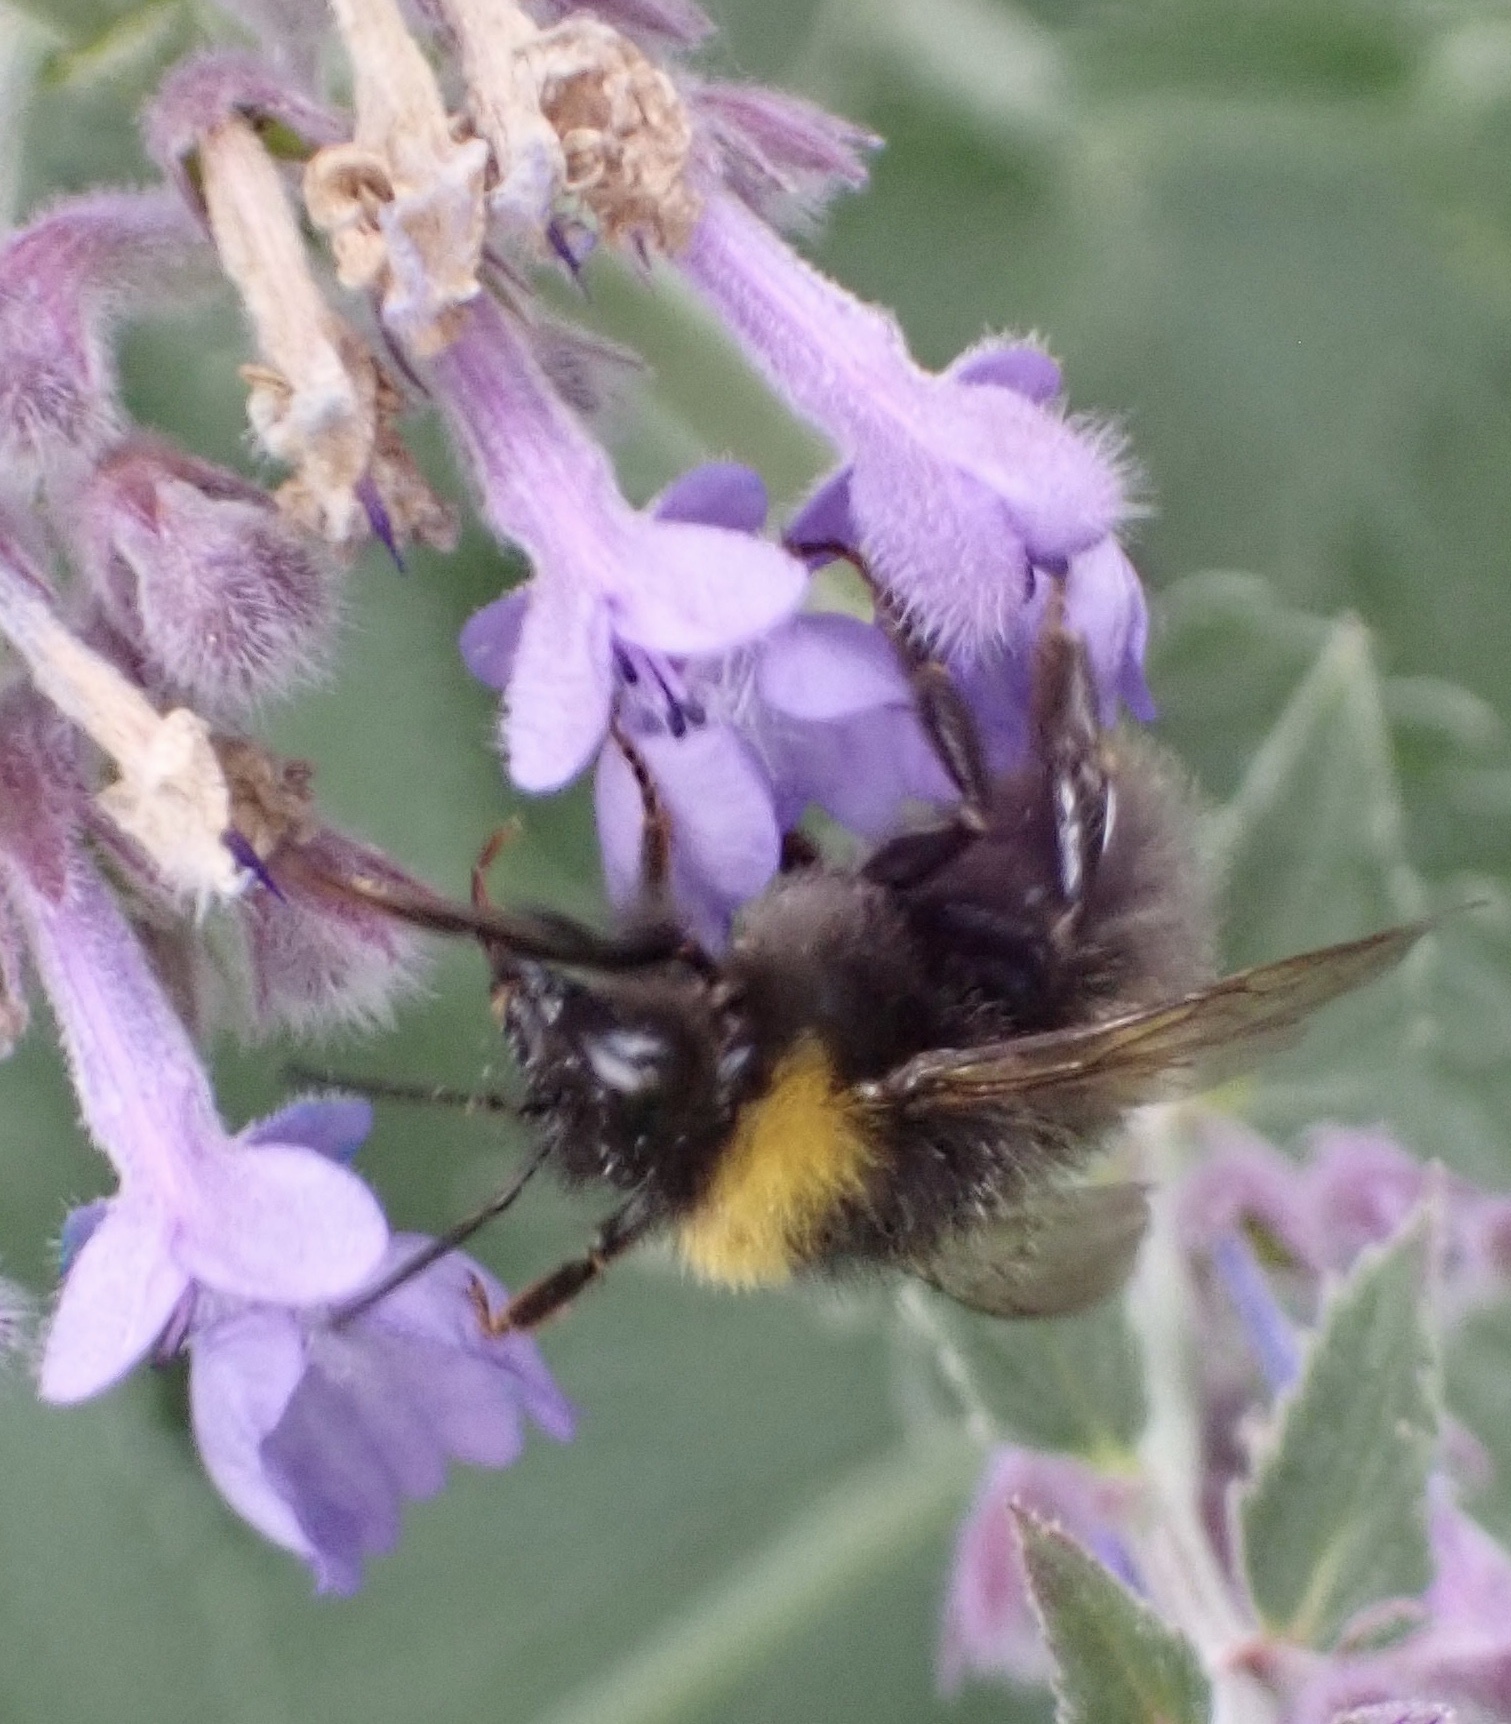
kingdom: Animalia
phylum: Arthropoda
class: Insecta
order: Hymenoptera
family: Apidae
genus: Bombus
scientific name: Bombus pratorum
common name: Early humble-bee
